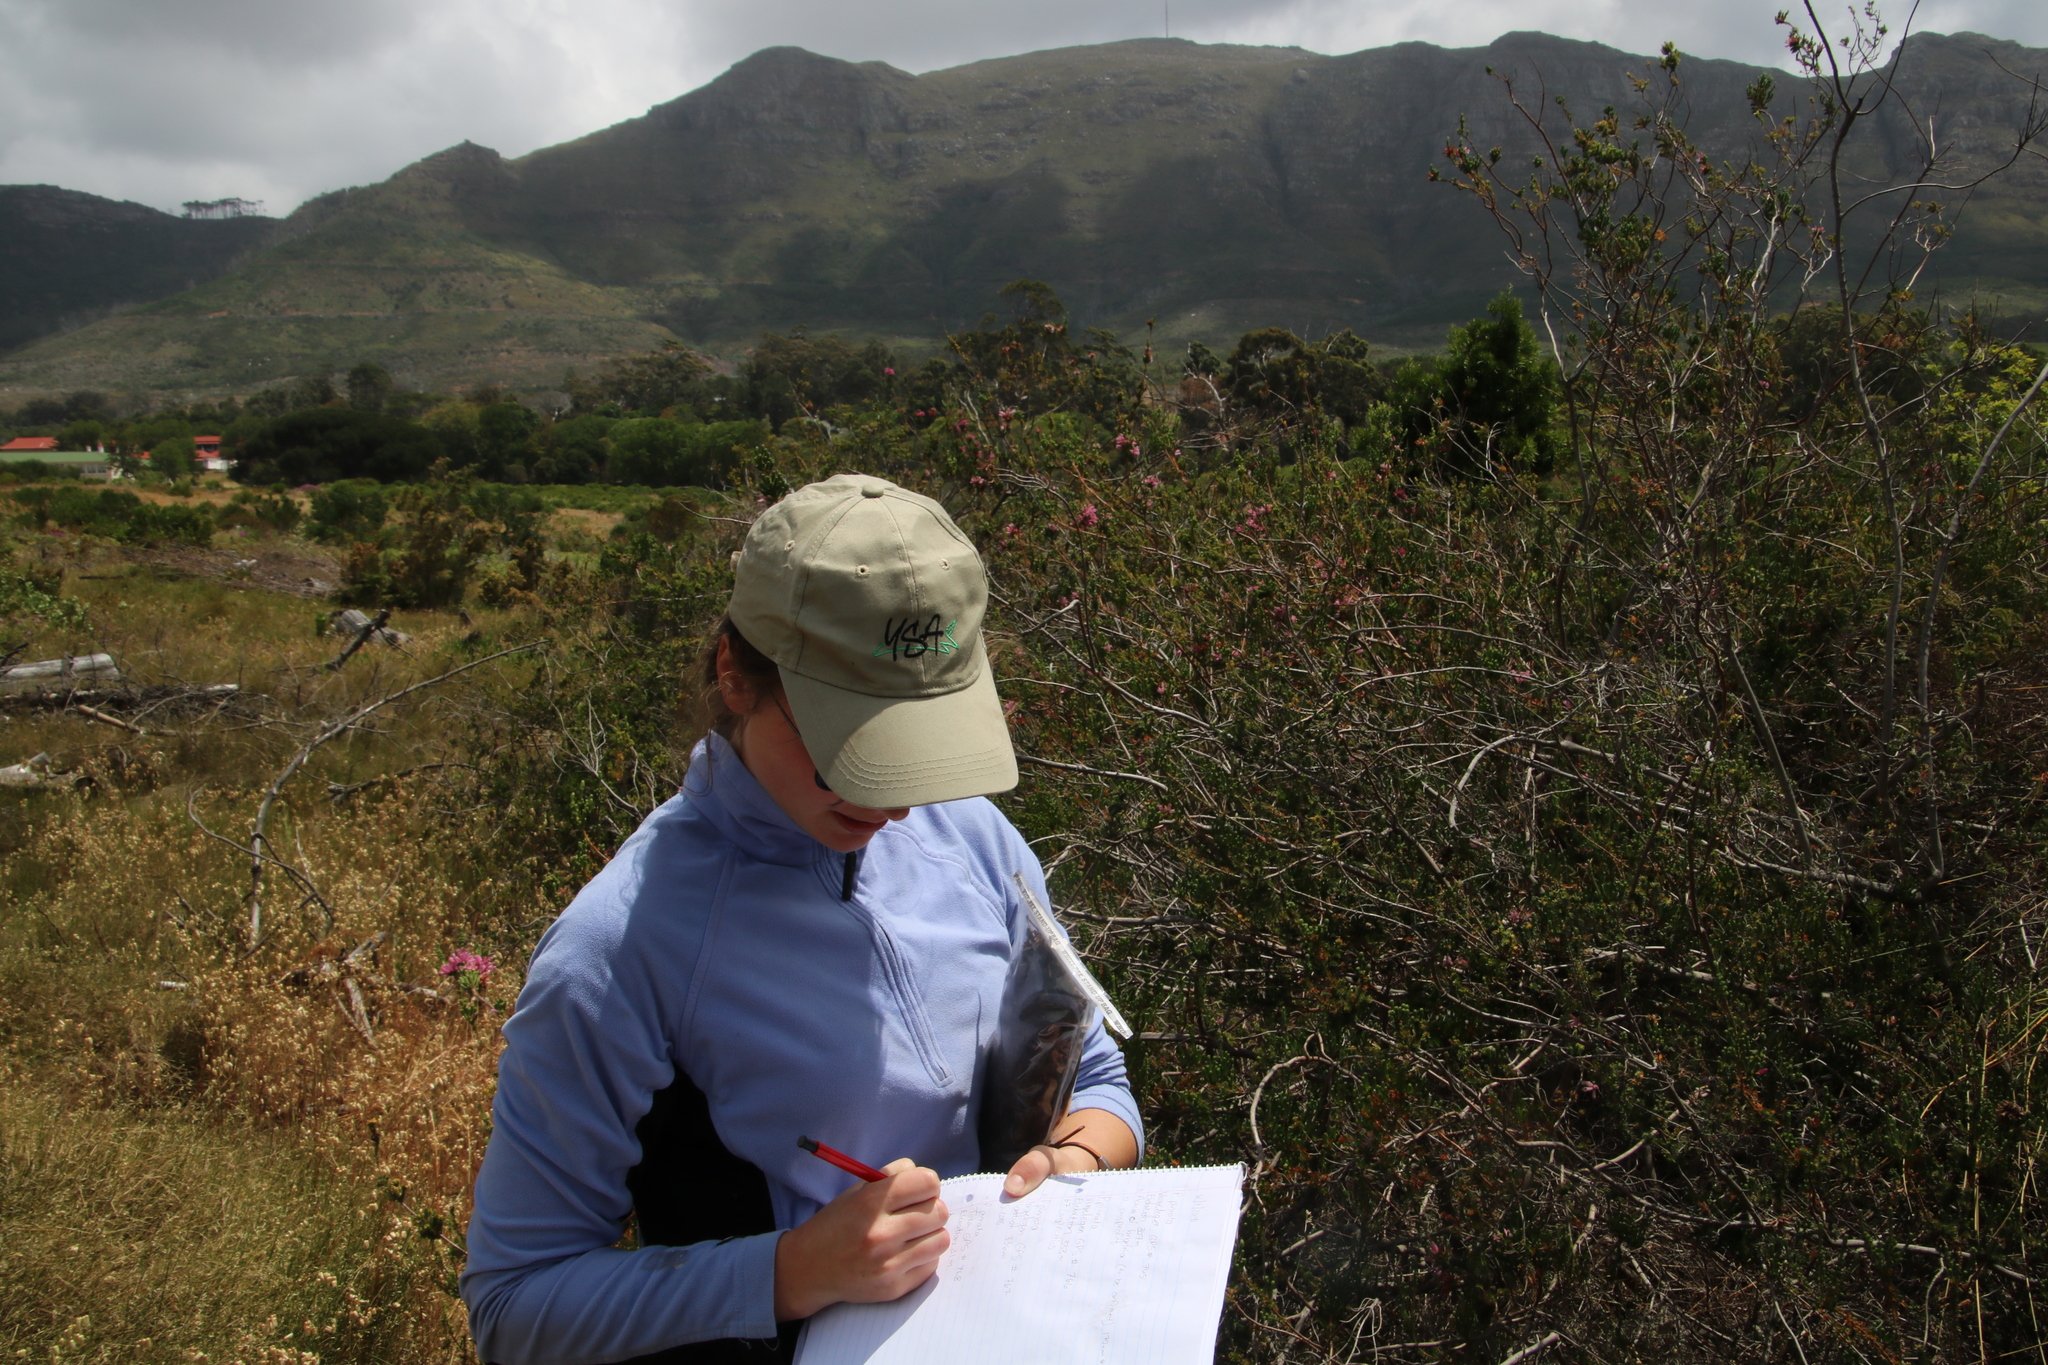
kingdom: Plantae
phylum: Tracheophyta
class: Magnoliopsida
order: Ericales
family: Ericaceae
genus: Erica
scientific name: Erica verticillata
